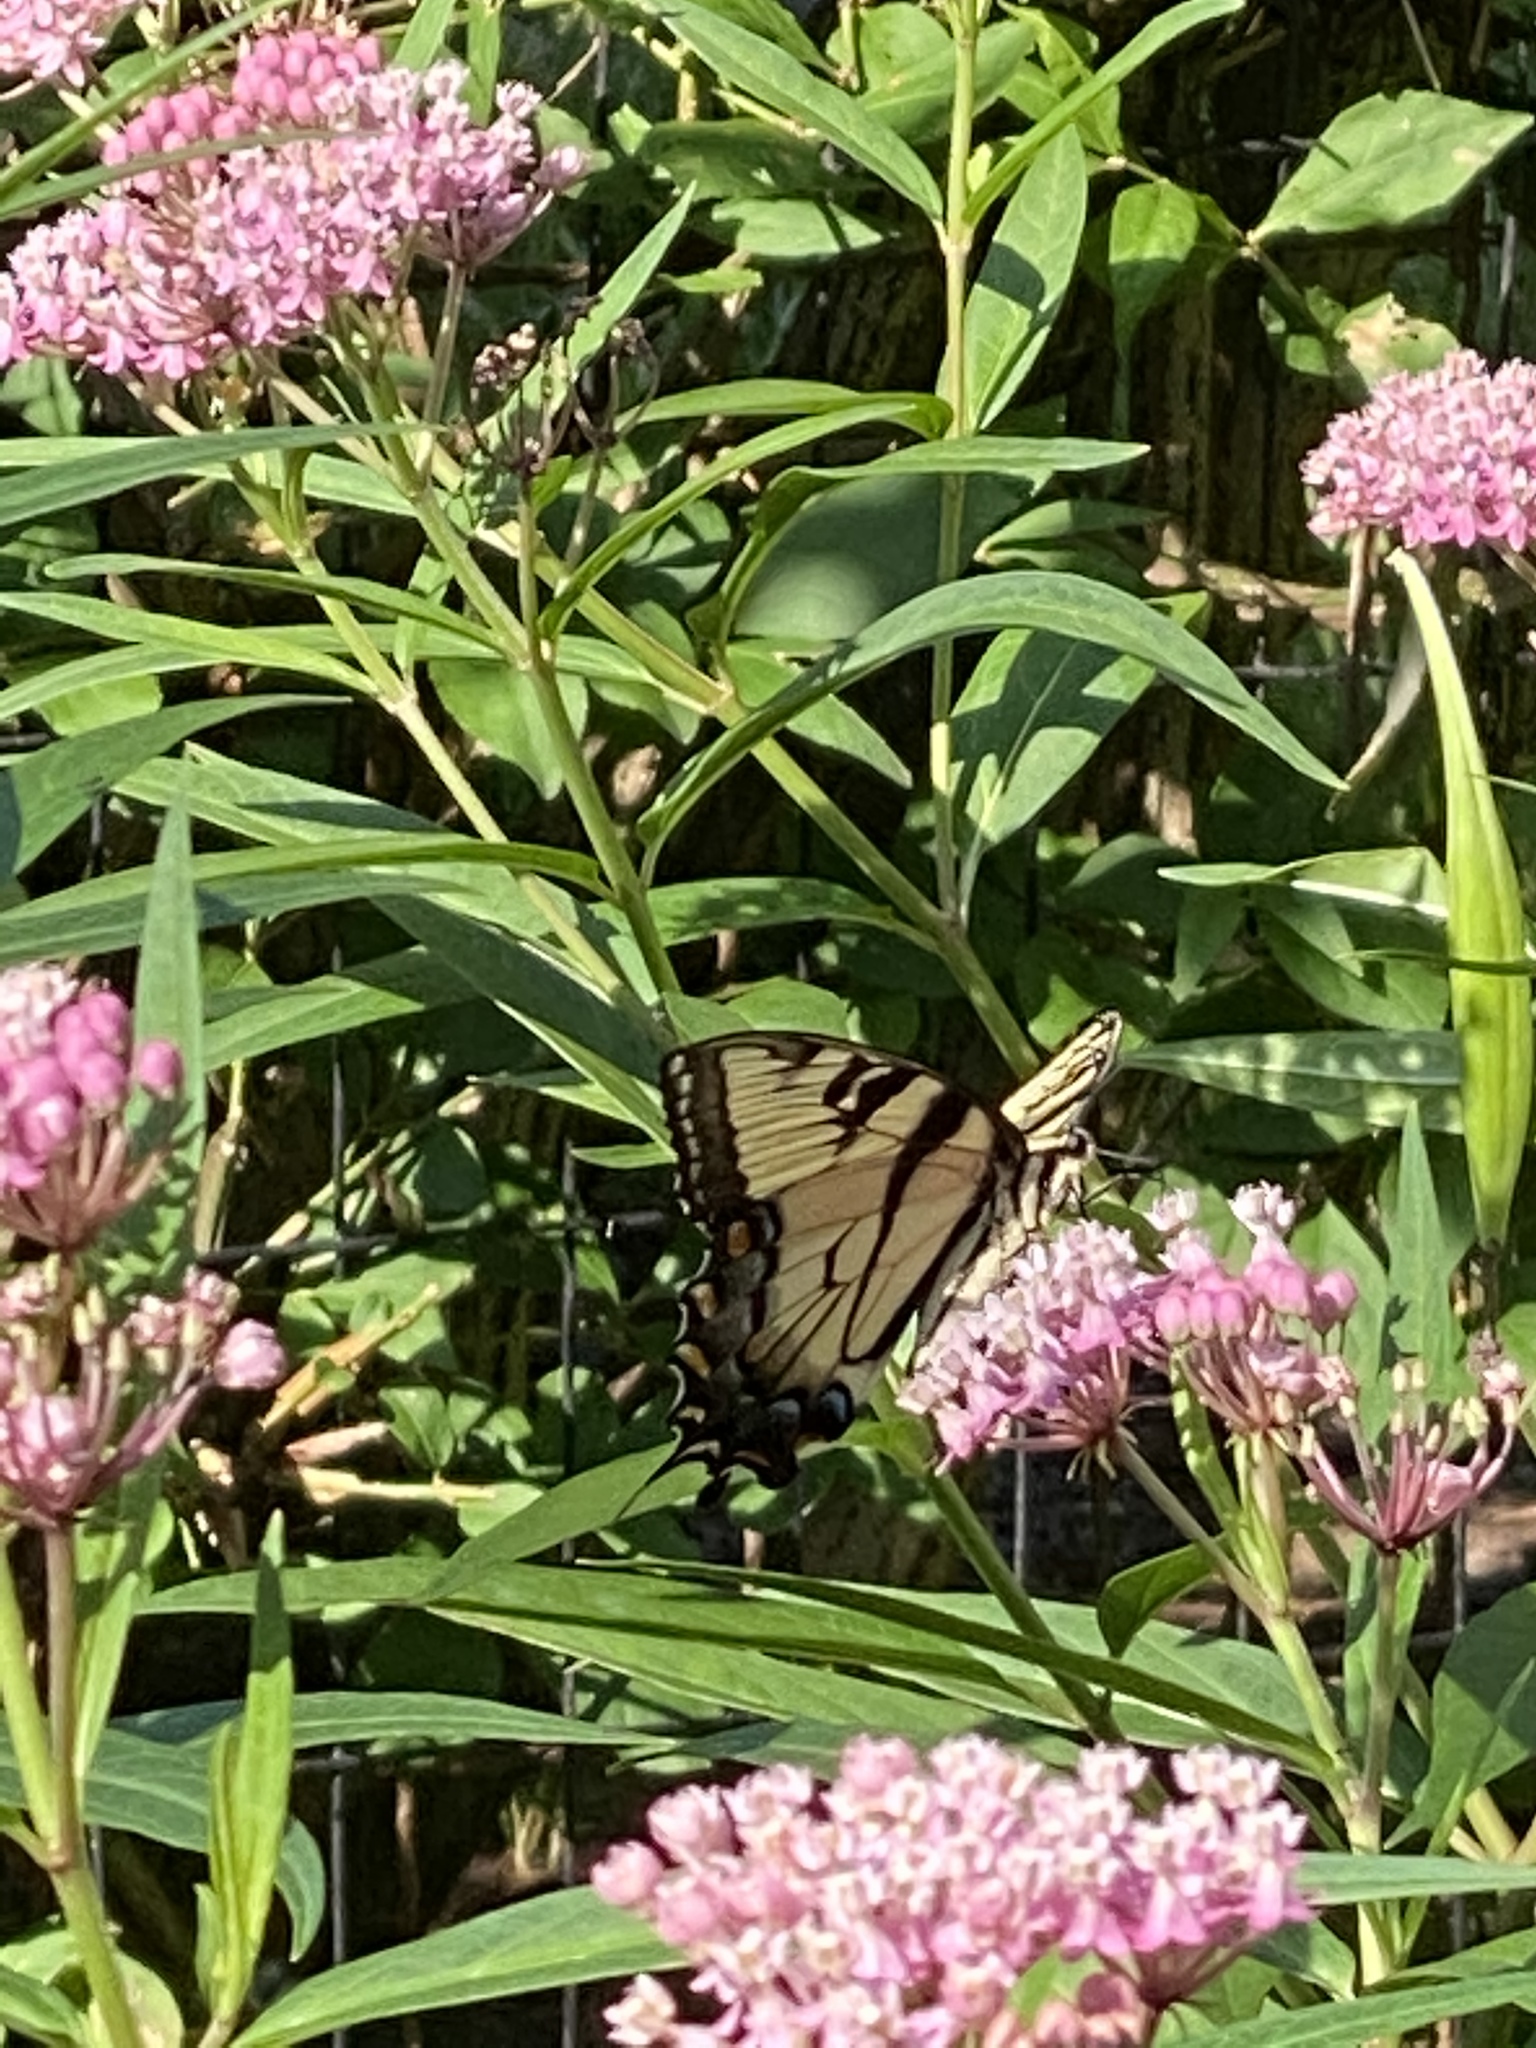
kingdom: Animalia
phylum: Arthropoda
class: Insecta
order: Lepidoptera
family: Papilionidae
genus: Papilio
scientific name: Papilio glaucus
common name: Tiger swallowtail
